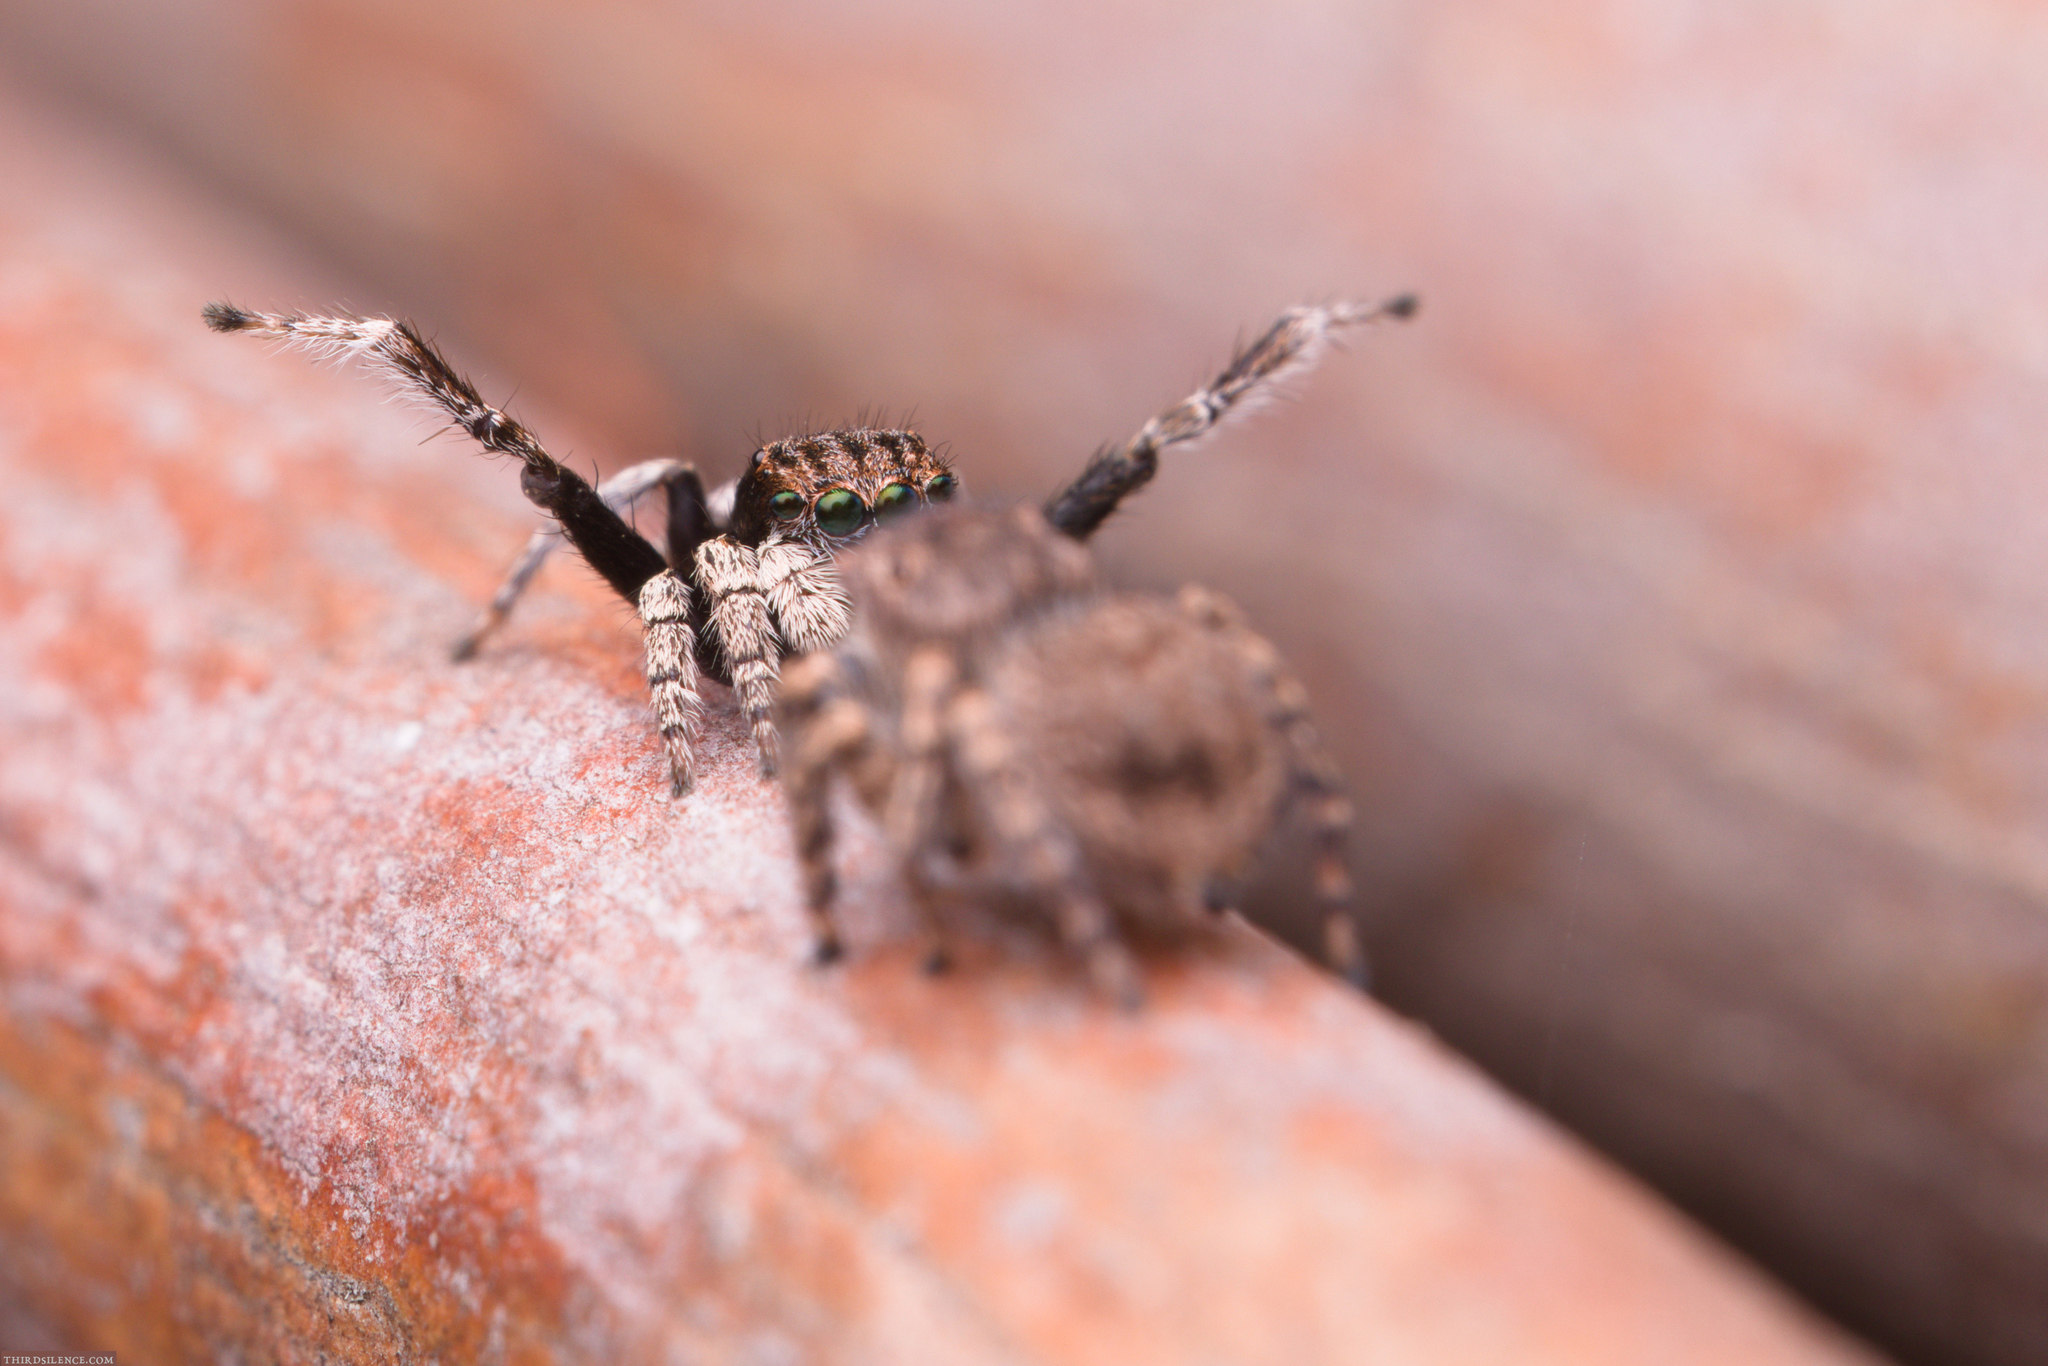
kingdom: Animalia
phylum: Arthropoda
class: Arachnida
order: Araneae
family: Salticidae
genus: Maratus
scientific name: Maratus vespertilio
